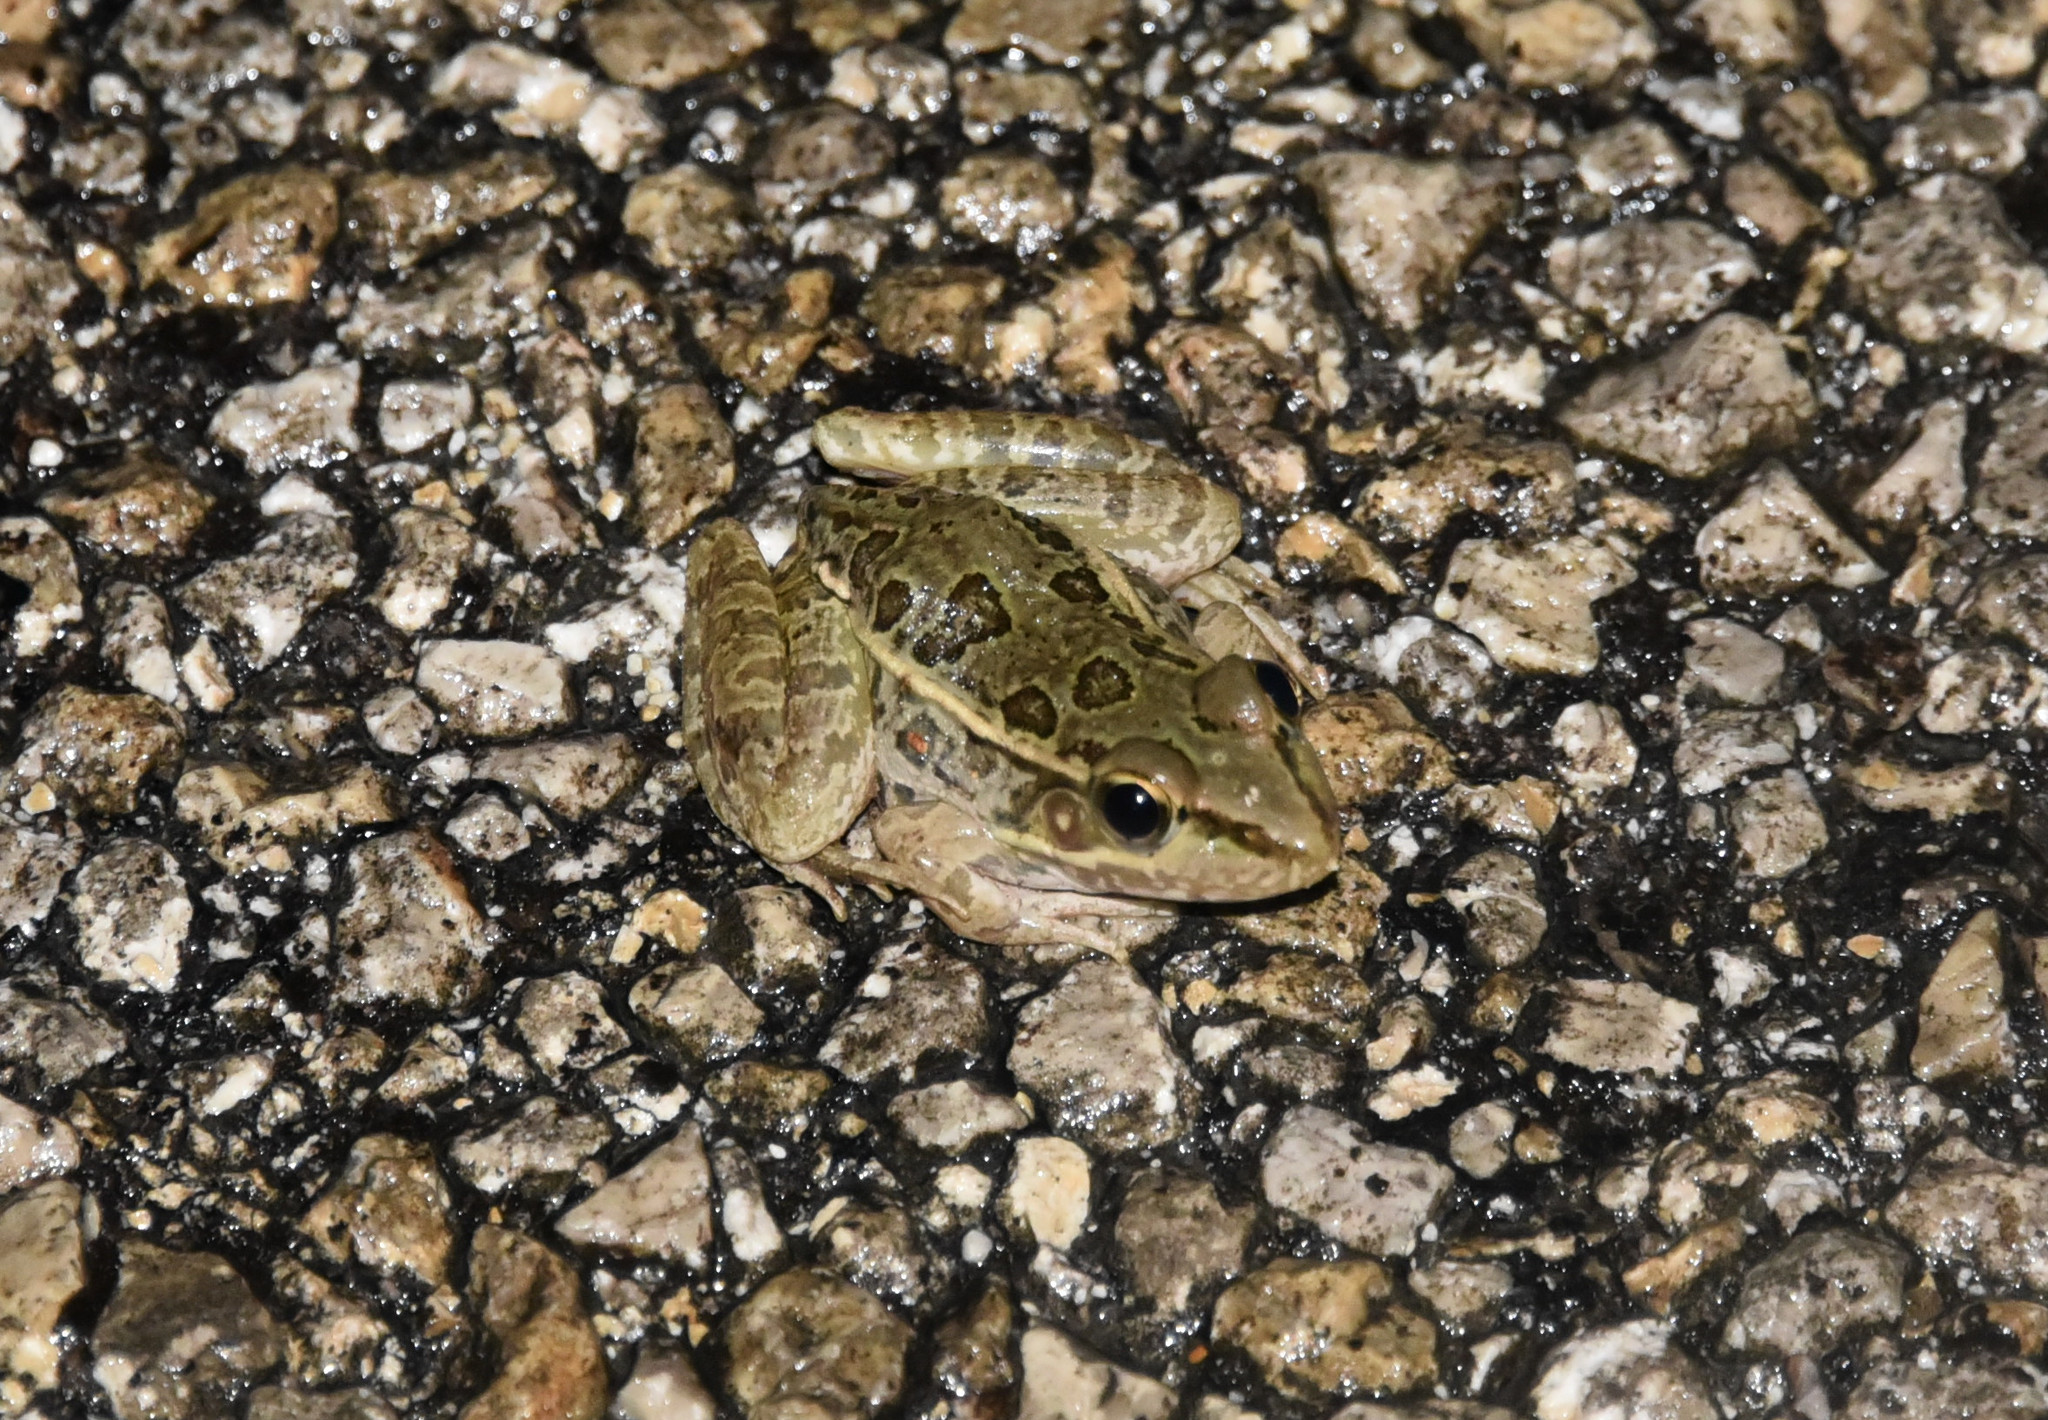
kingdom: Animalia
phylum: Chordata
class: Amphibia
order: Anura
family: Ranidae
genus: Lithobates
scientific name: Lithobates berlandieri
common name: Rio grande leopard frog
